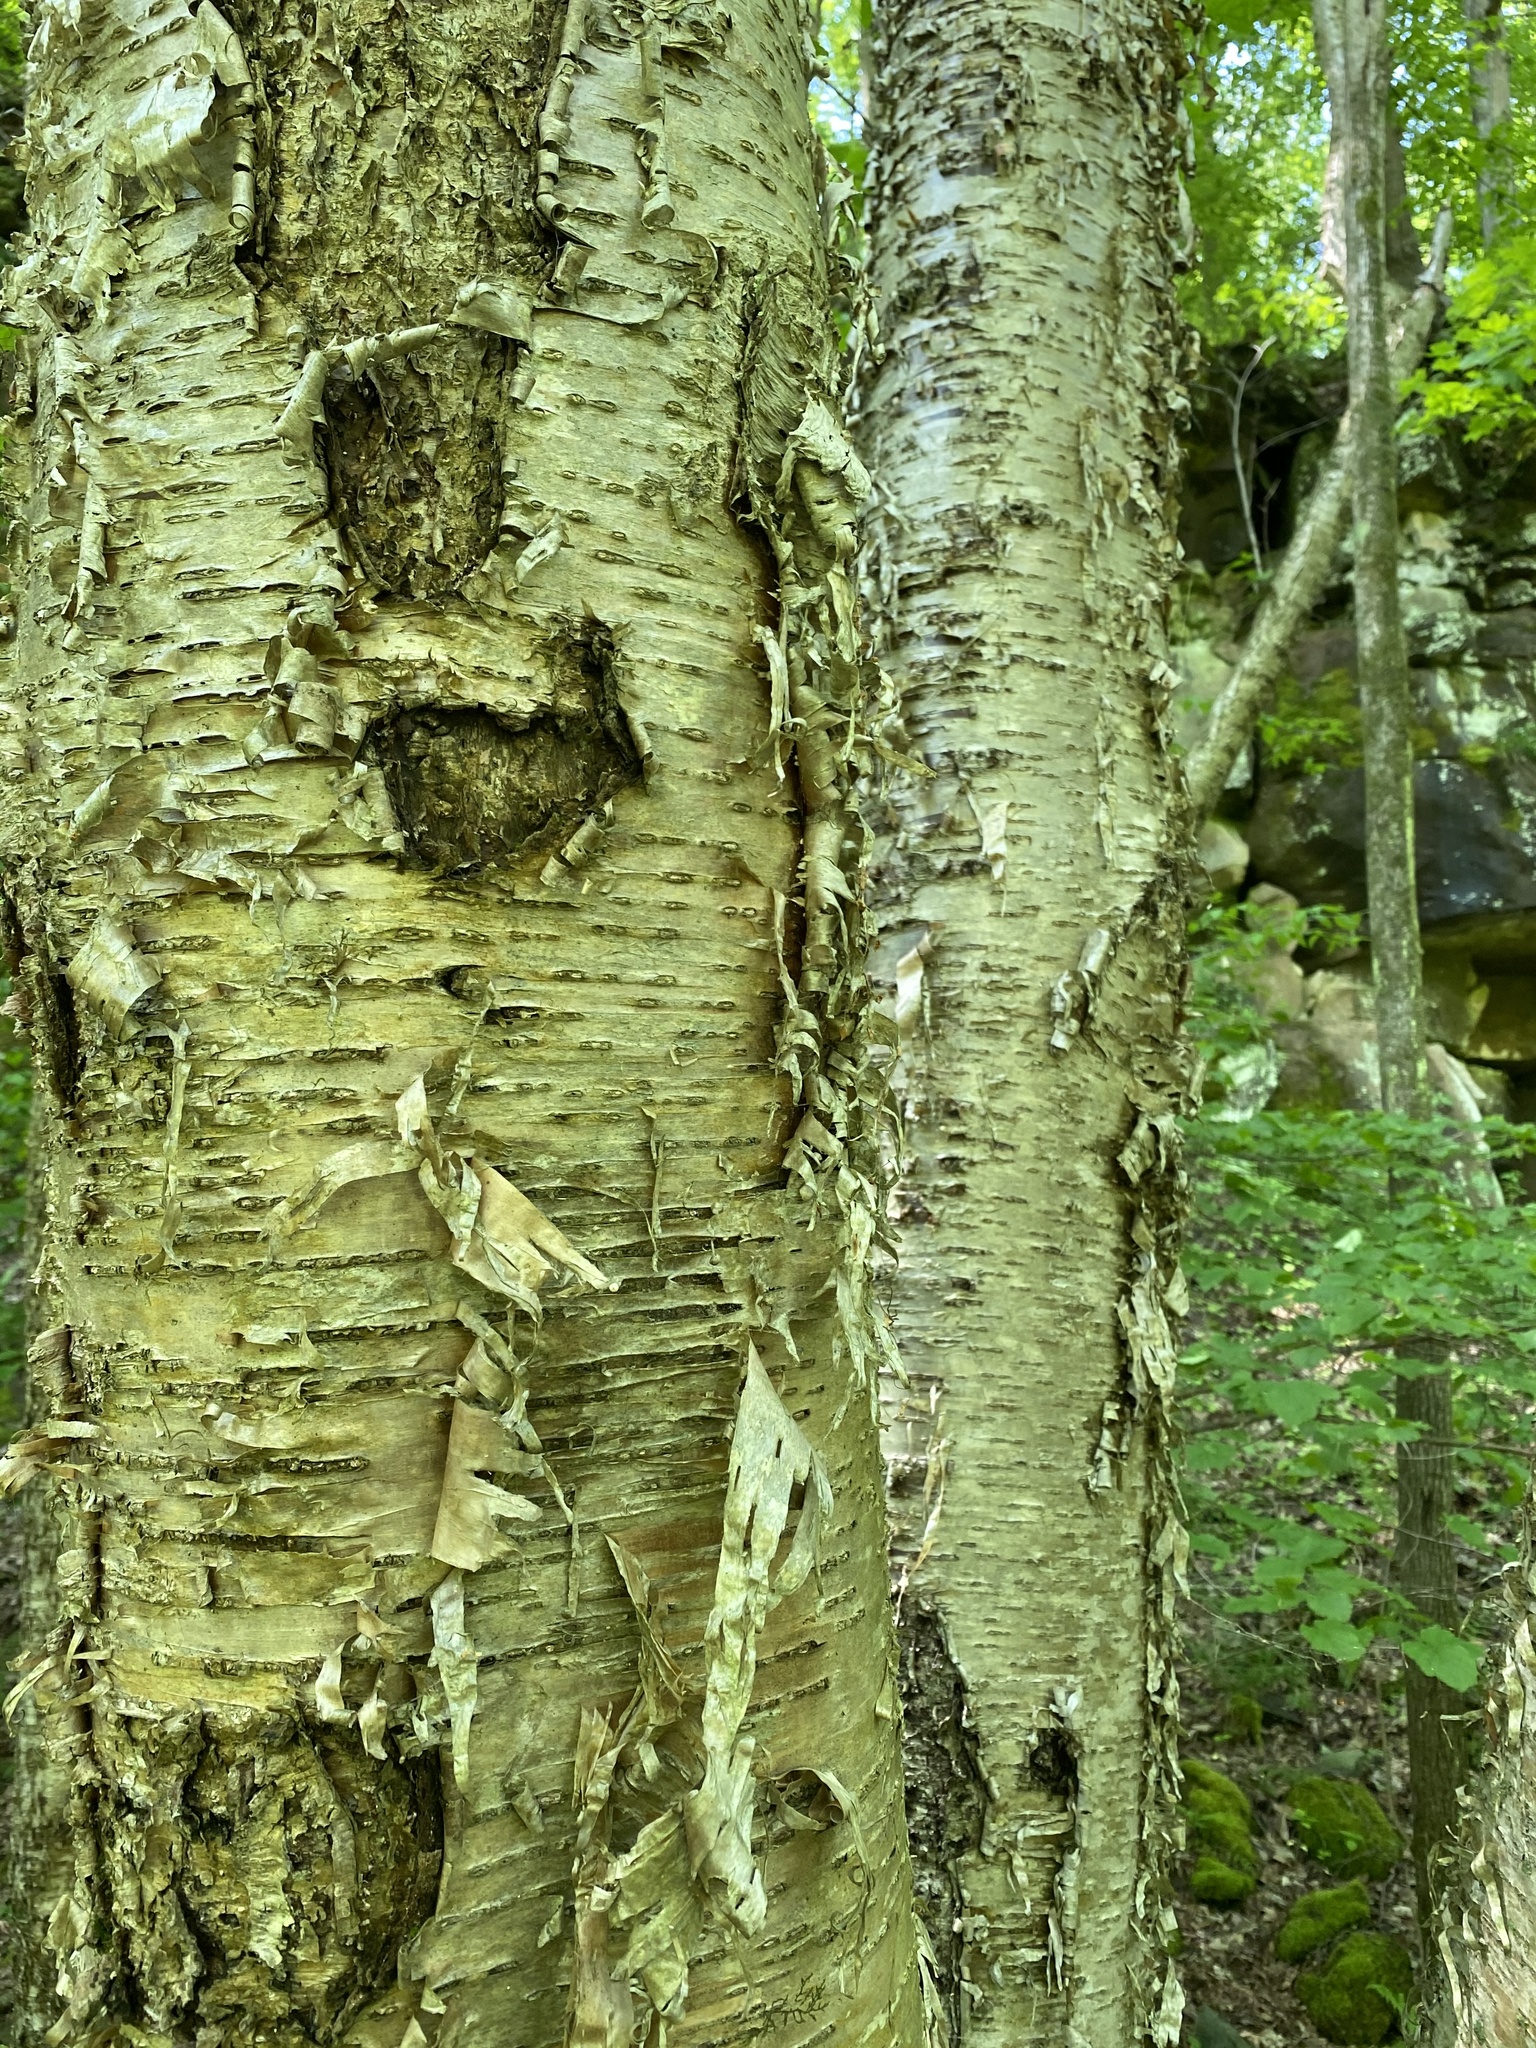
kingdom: Plantae
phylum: Tracheophyta
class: Magnoliopsida
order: Fagales
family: Betulaceae
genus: Betula
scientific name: Betula alleghaniensis
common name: Yellow birch
